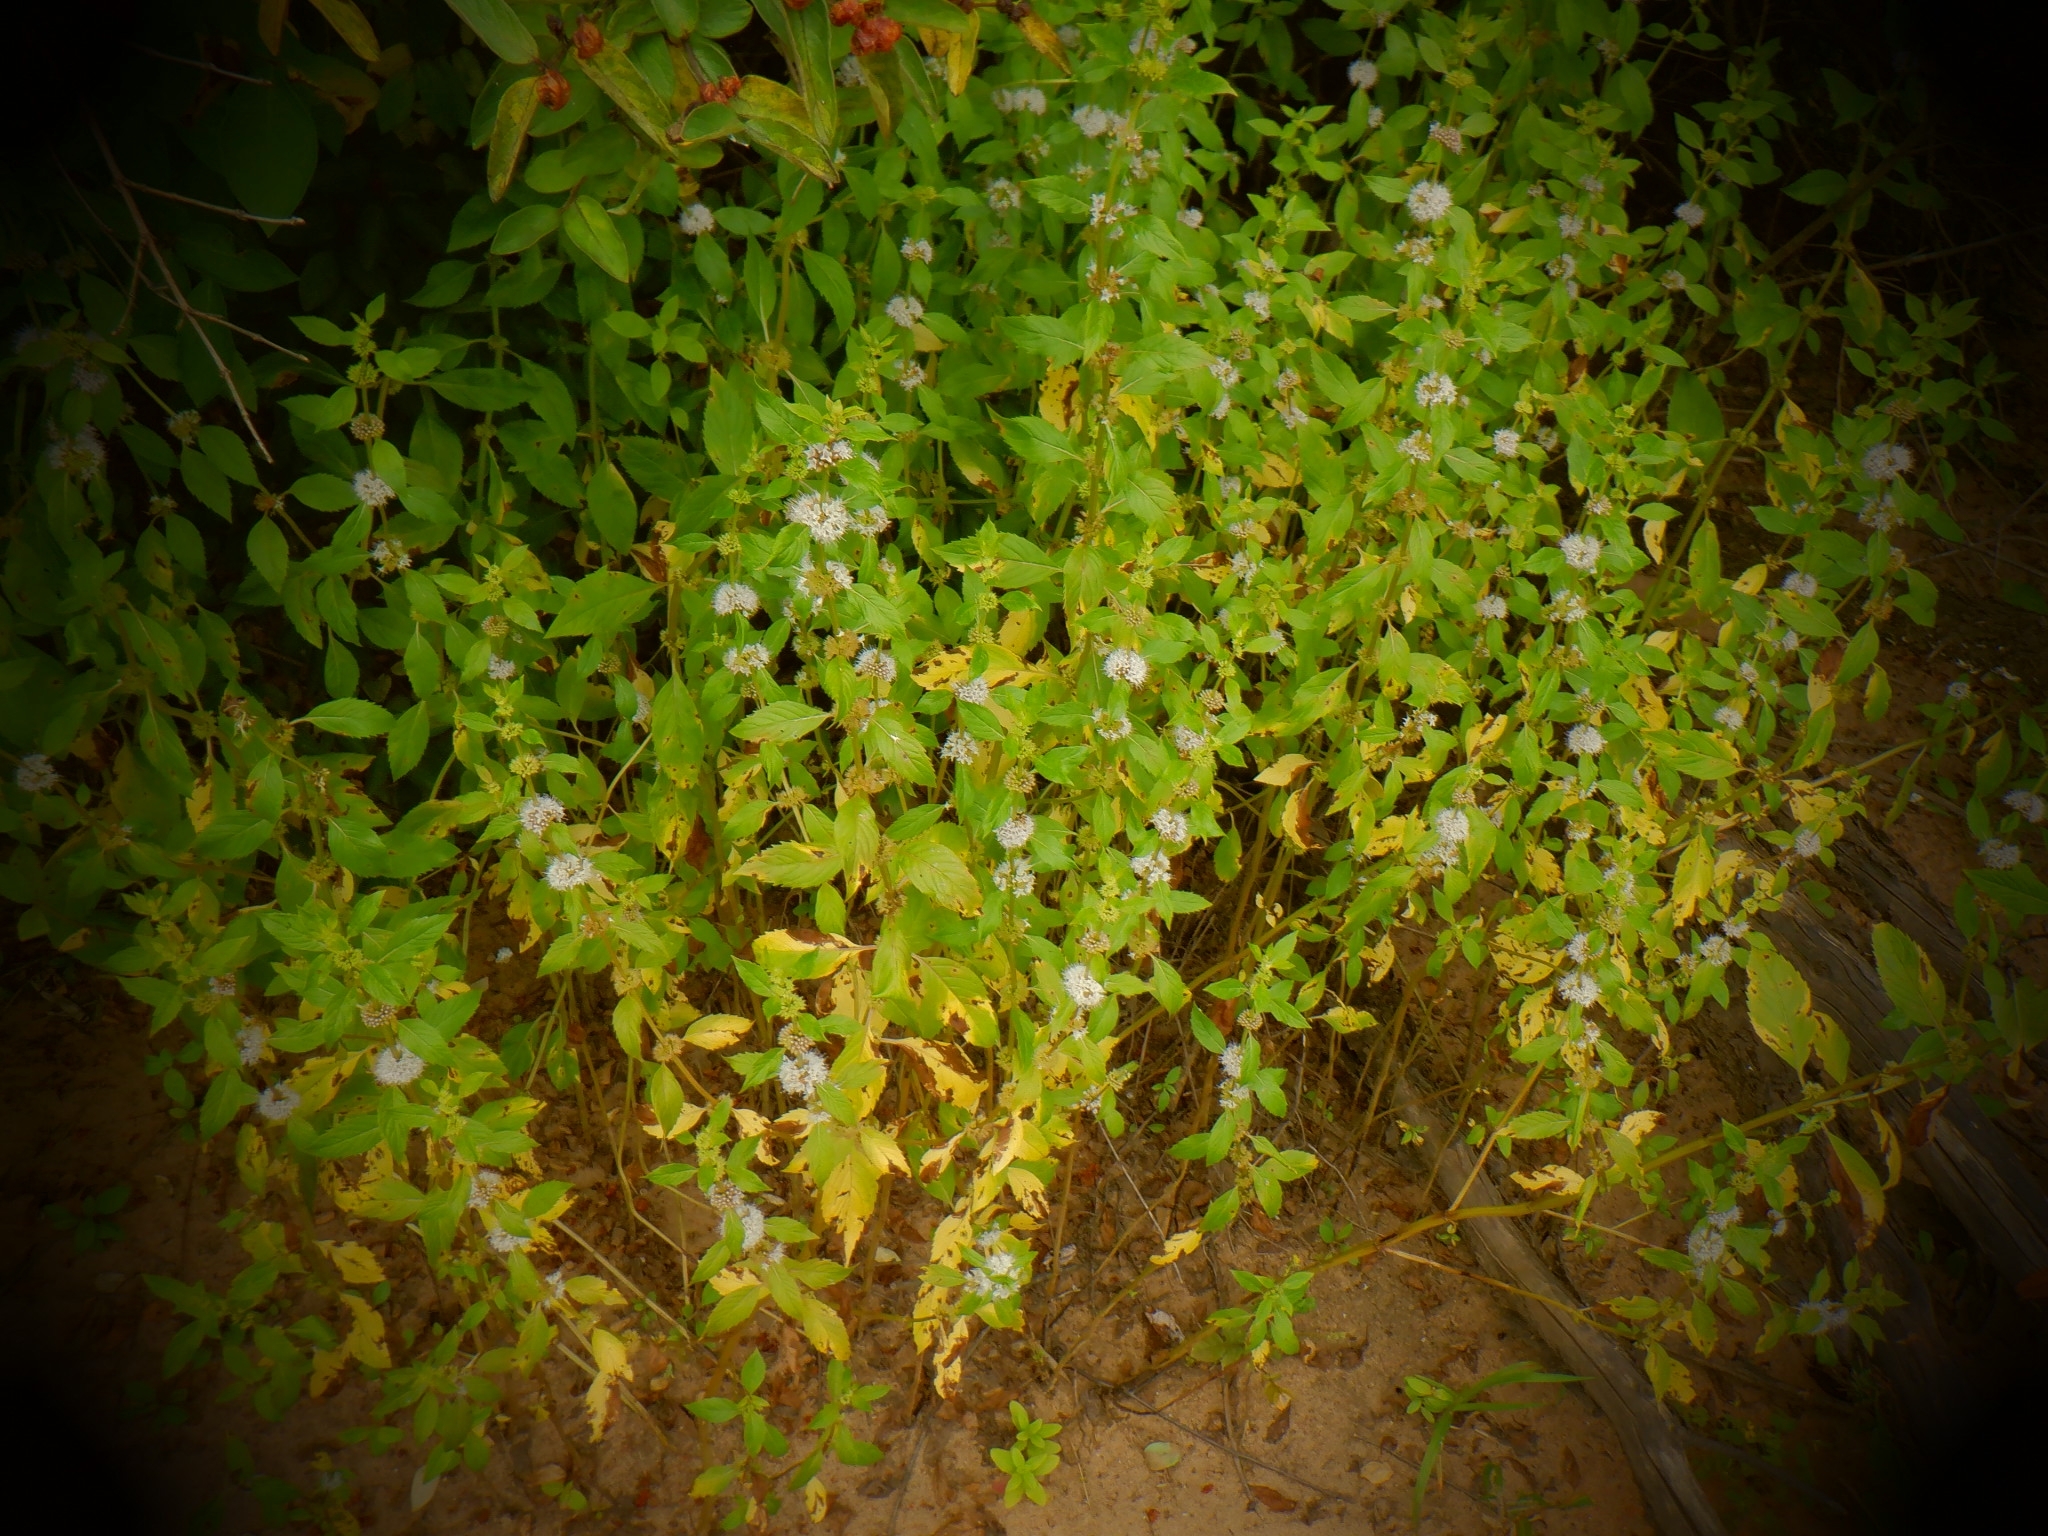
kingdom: Plantae
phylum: Tracheophyta
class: Magnoliopsida
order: Lamiales
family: Lamiaceae
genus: Mentha
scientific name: Mentha canadensis
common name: American corn mint
